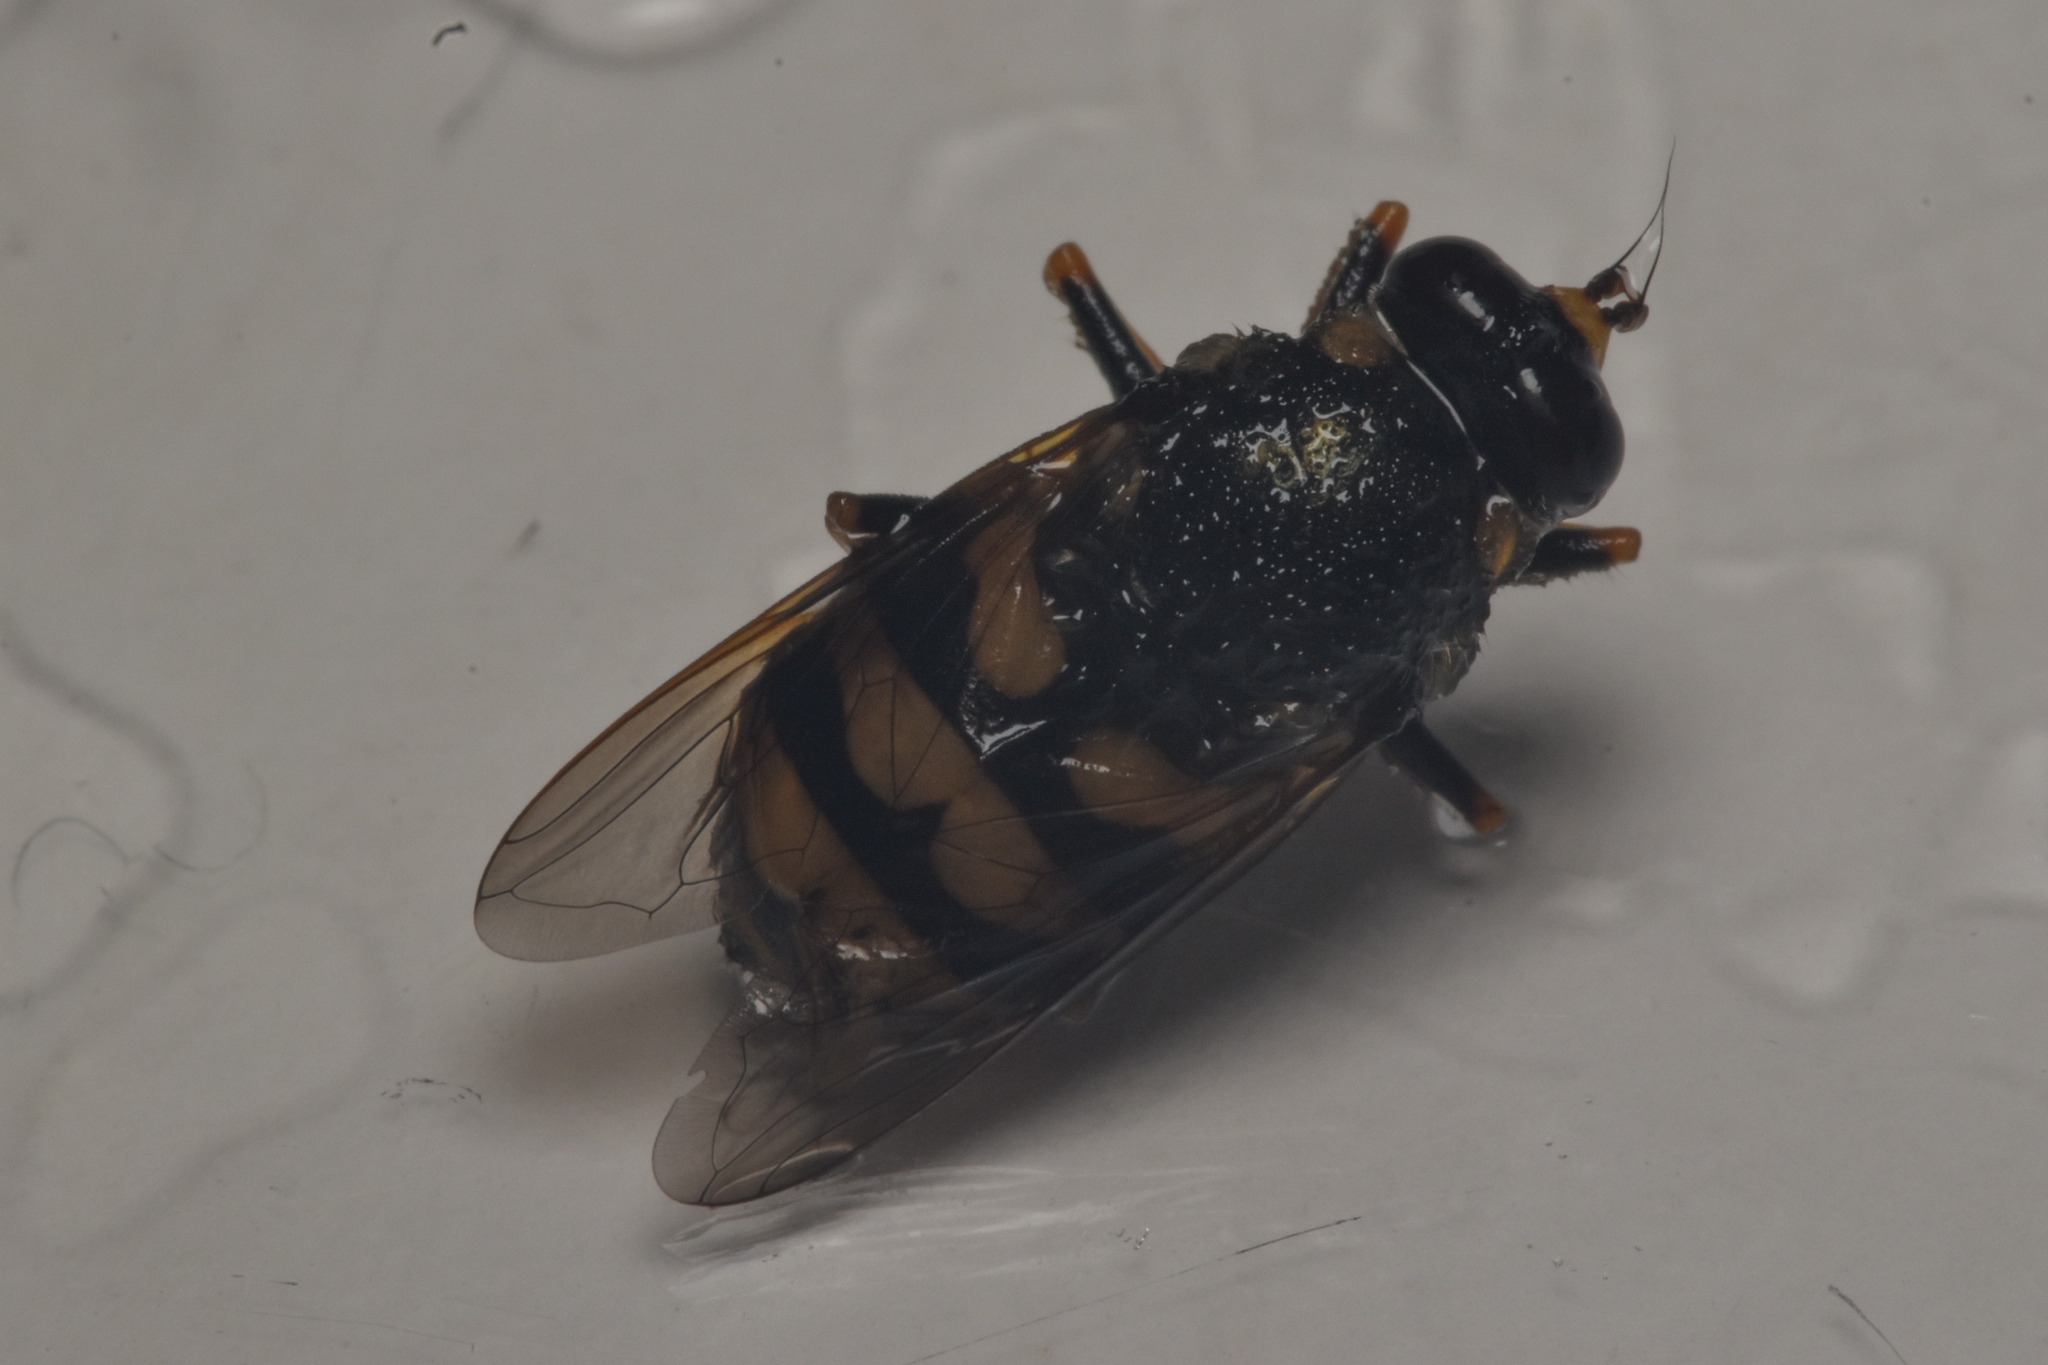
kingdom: Animalia
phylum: Arthropoda
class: Insecta
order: Diptera
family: Syrphidae
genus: Blera
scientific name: Blera scitula
